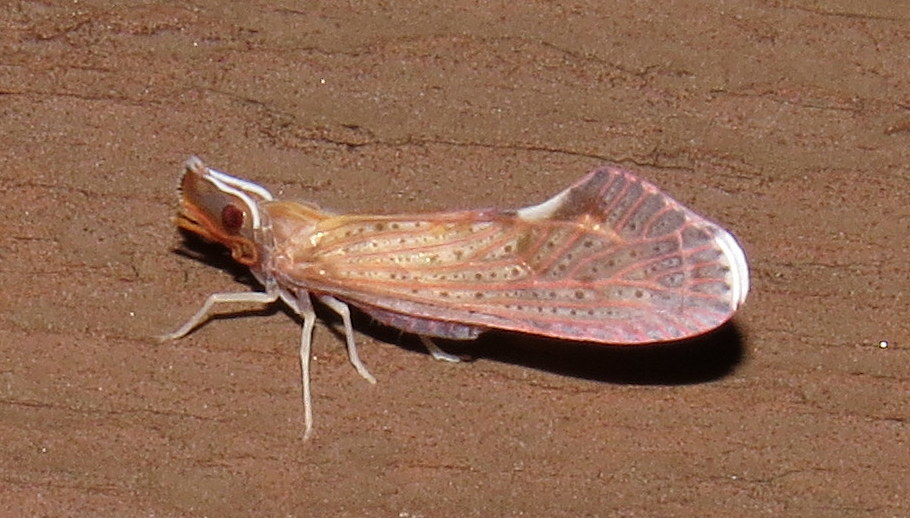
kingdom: Animalia
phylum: Arthropoda
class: Insecta
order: Hemiptera
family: Derbidae
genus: Apache
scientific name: Apache degeeri
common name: Red-fanned planthopper
